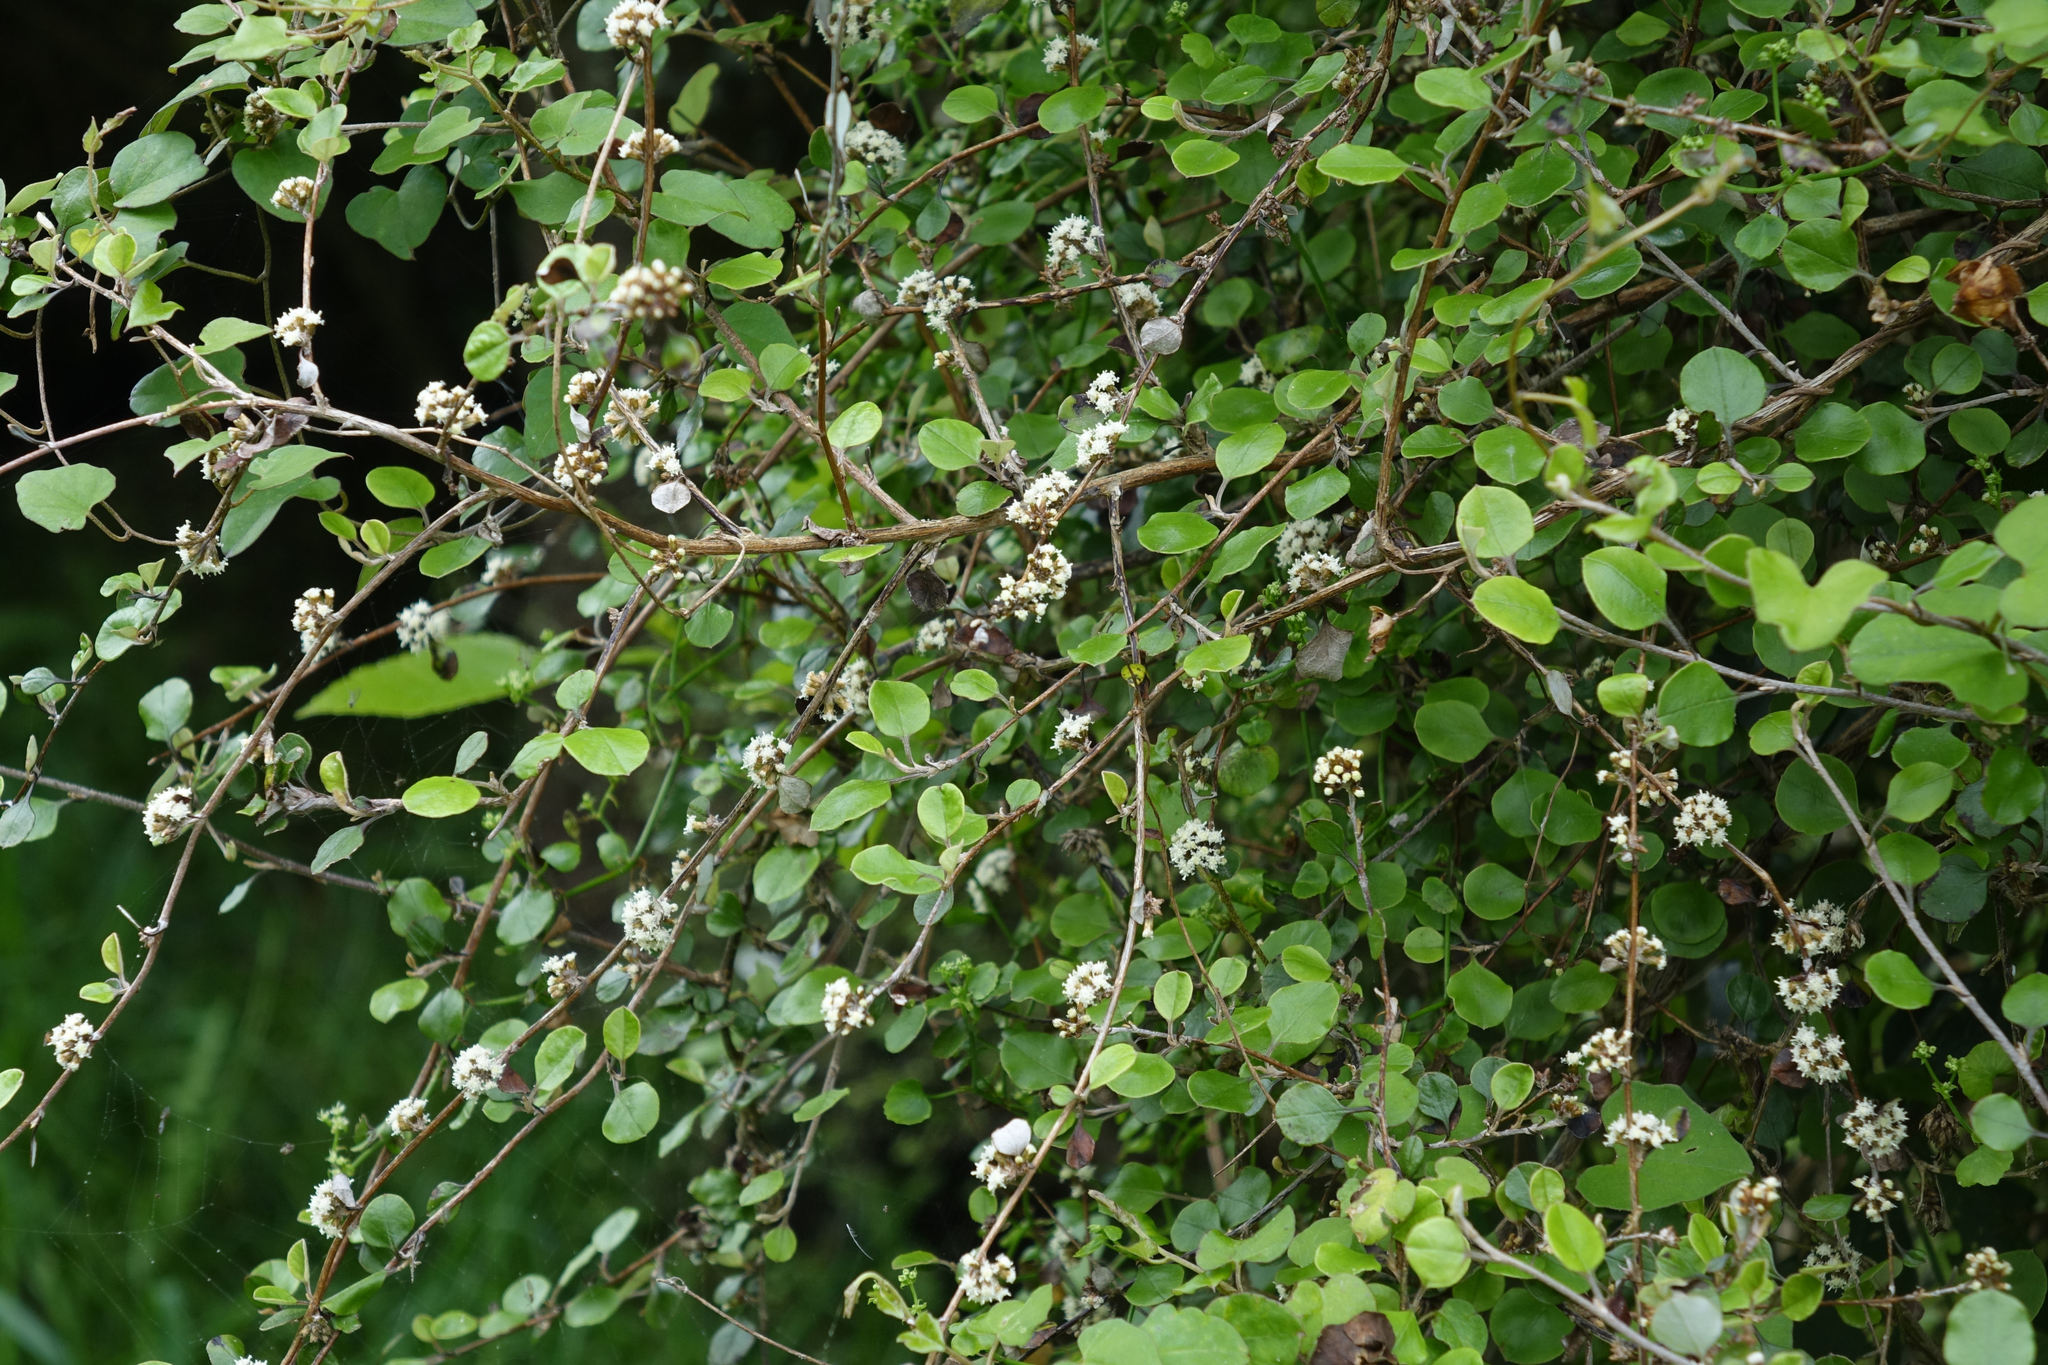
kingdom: Plantae
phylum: Tracheophyta
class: Magnoliopsida
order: Asterales
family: Asteraceae
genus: Ozothamnus
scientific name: Ozothamnus glomeratus
